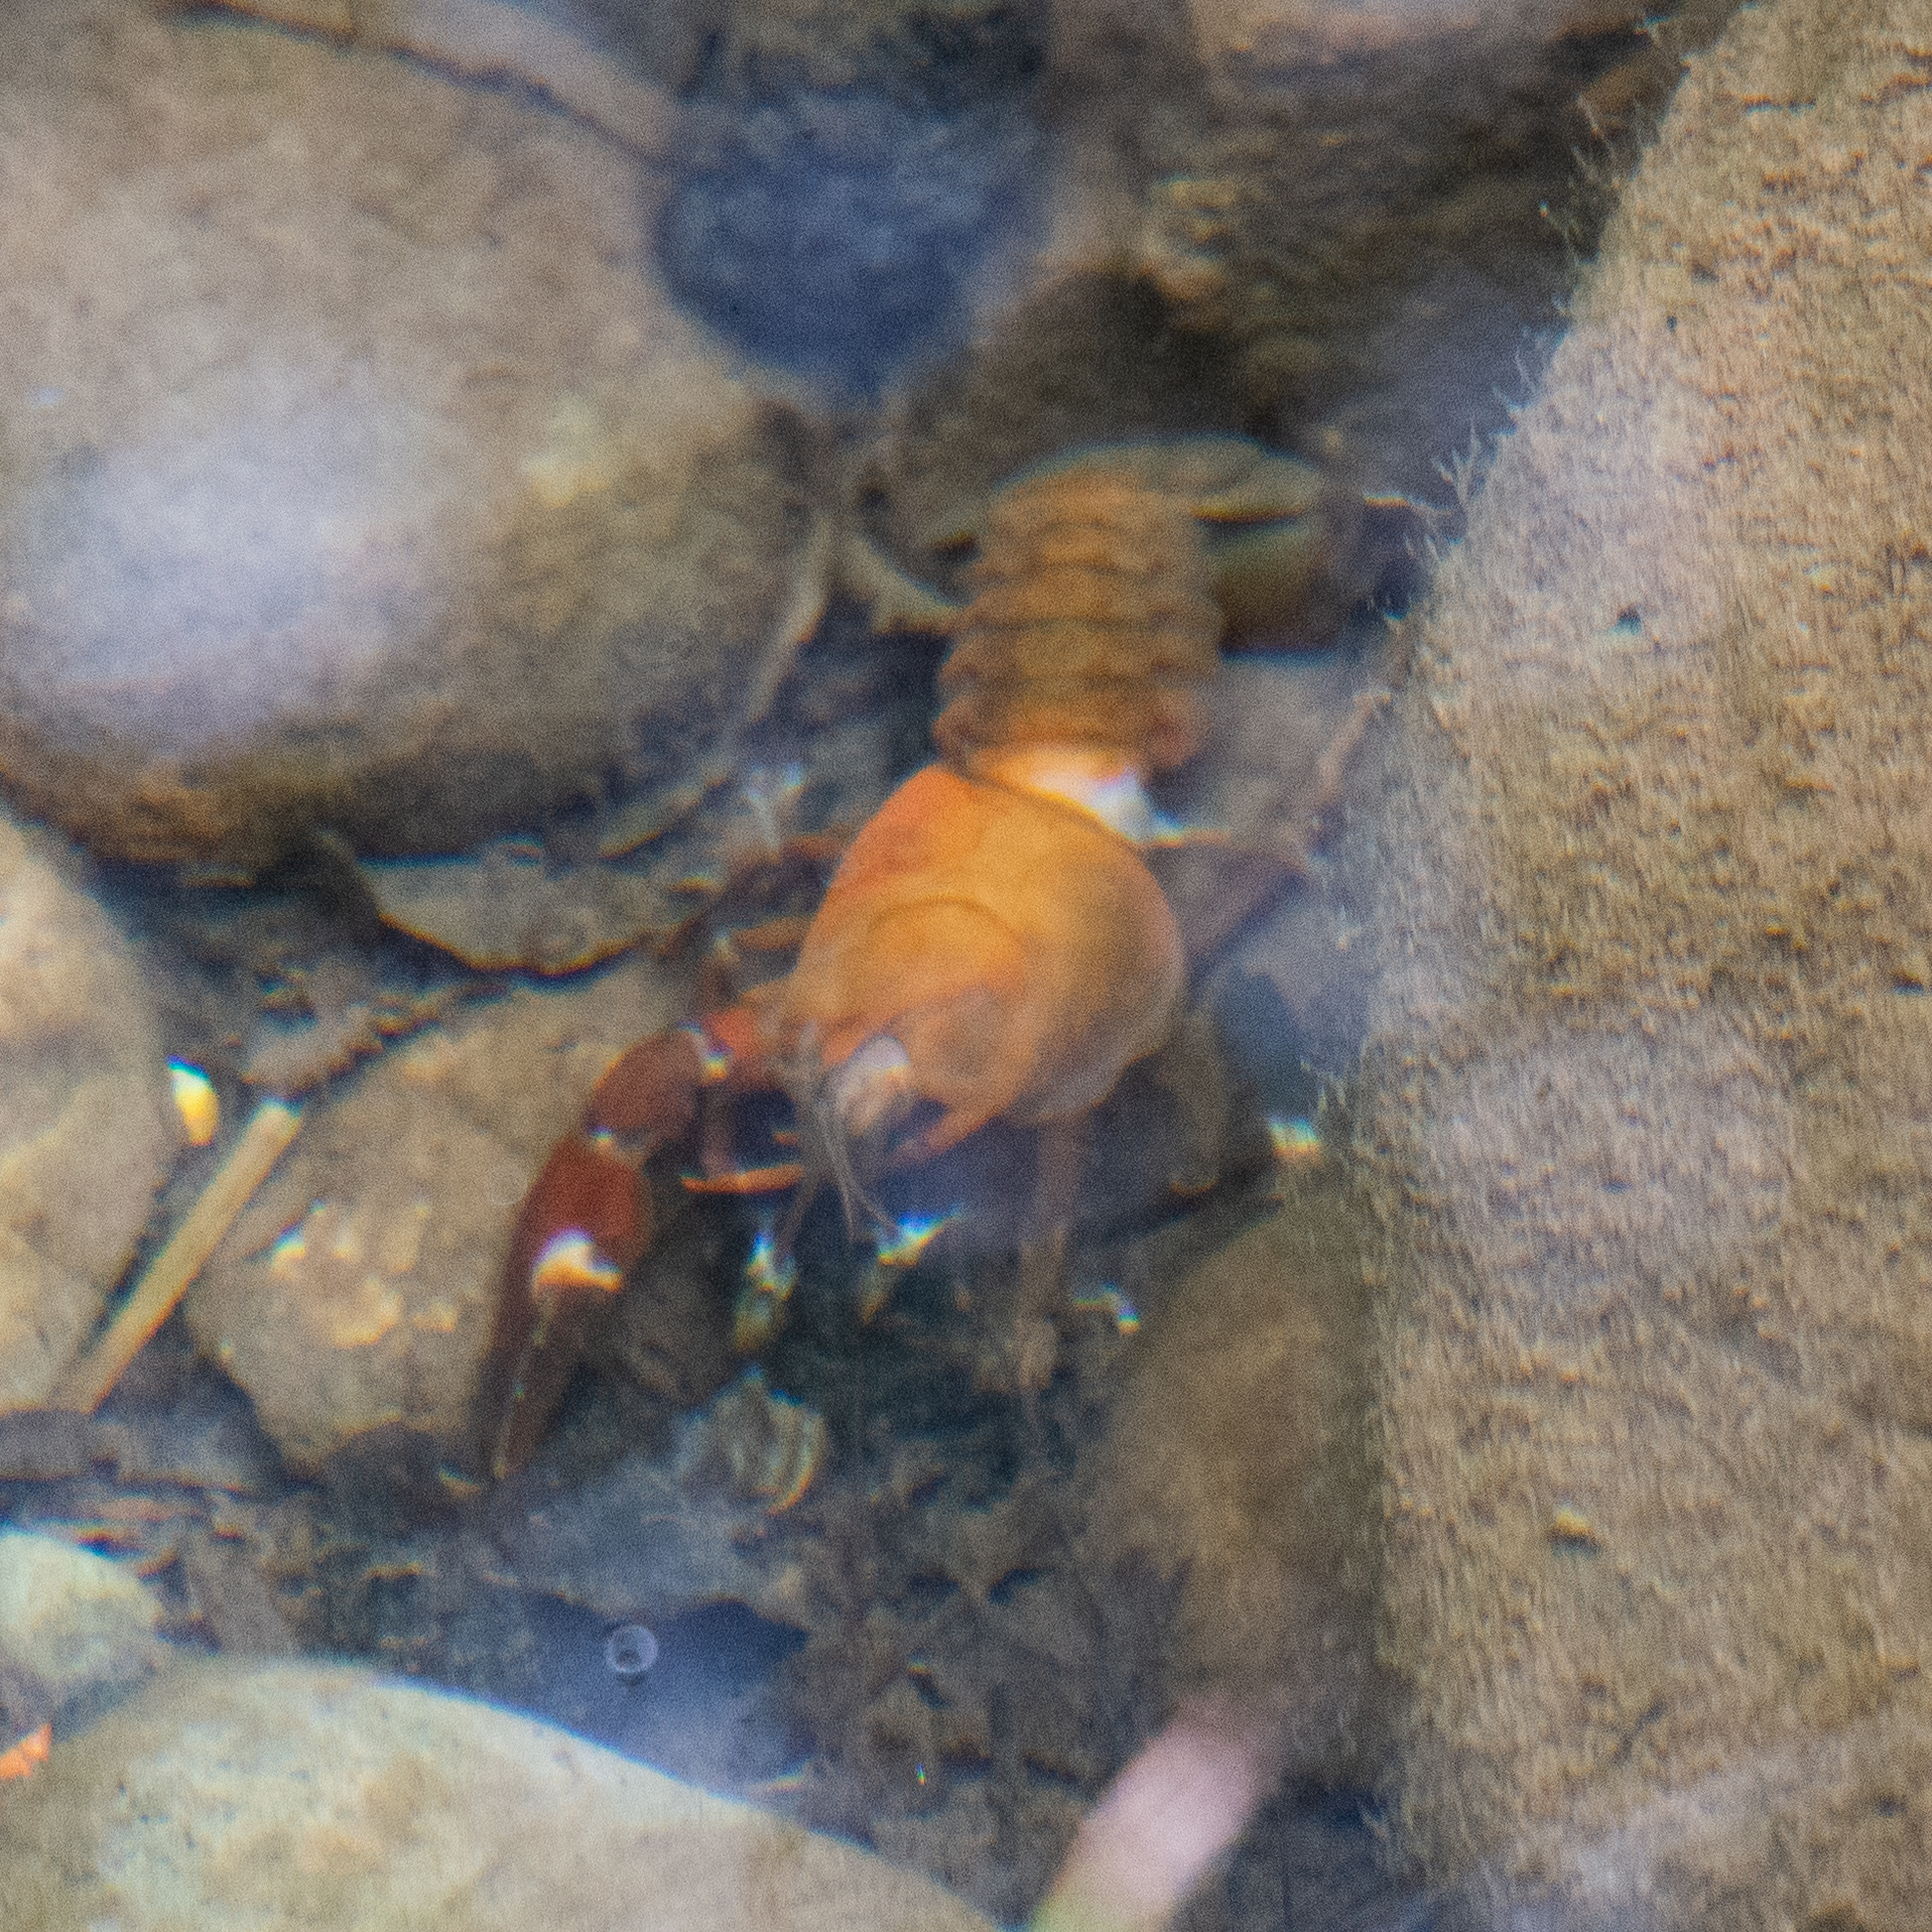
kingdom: Animalia
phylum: Arthropoda
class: Malacostraca
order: Decapoda
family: Astacidae
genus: Pacifastacus
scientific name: Pacifastacus leniusculus
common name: Signal crayfish
